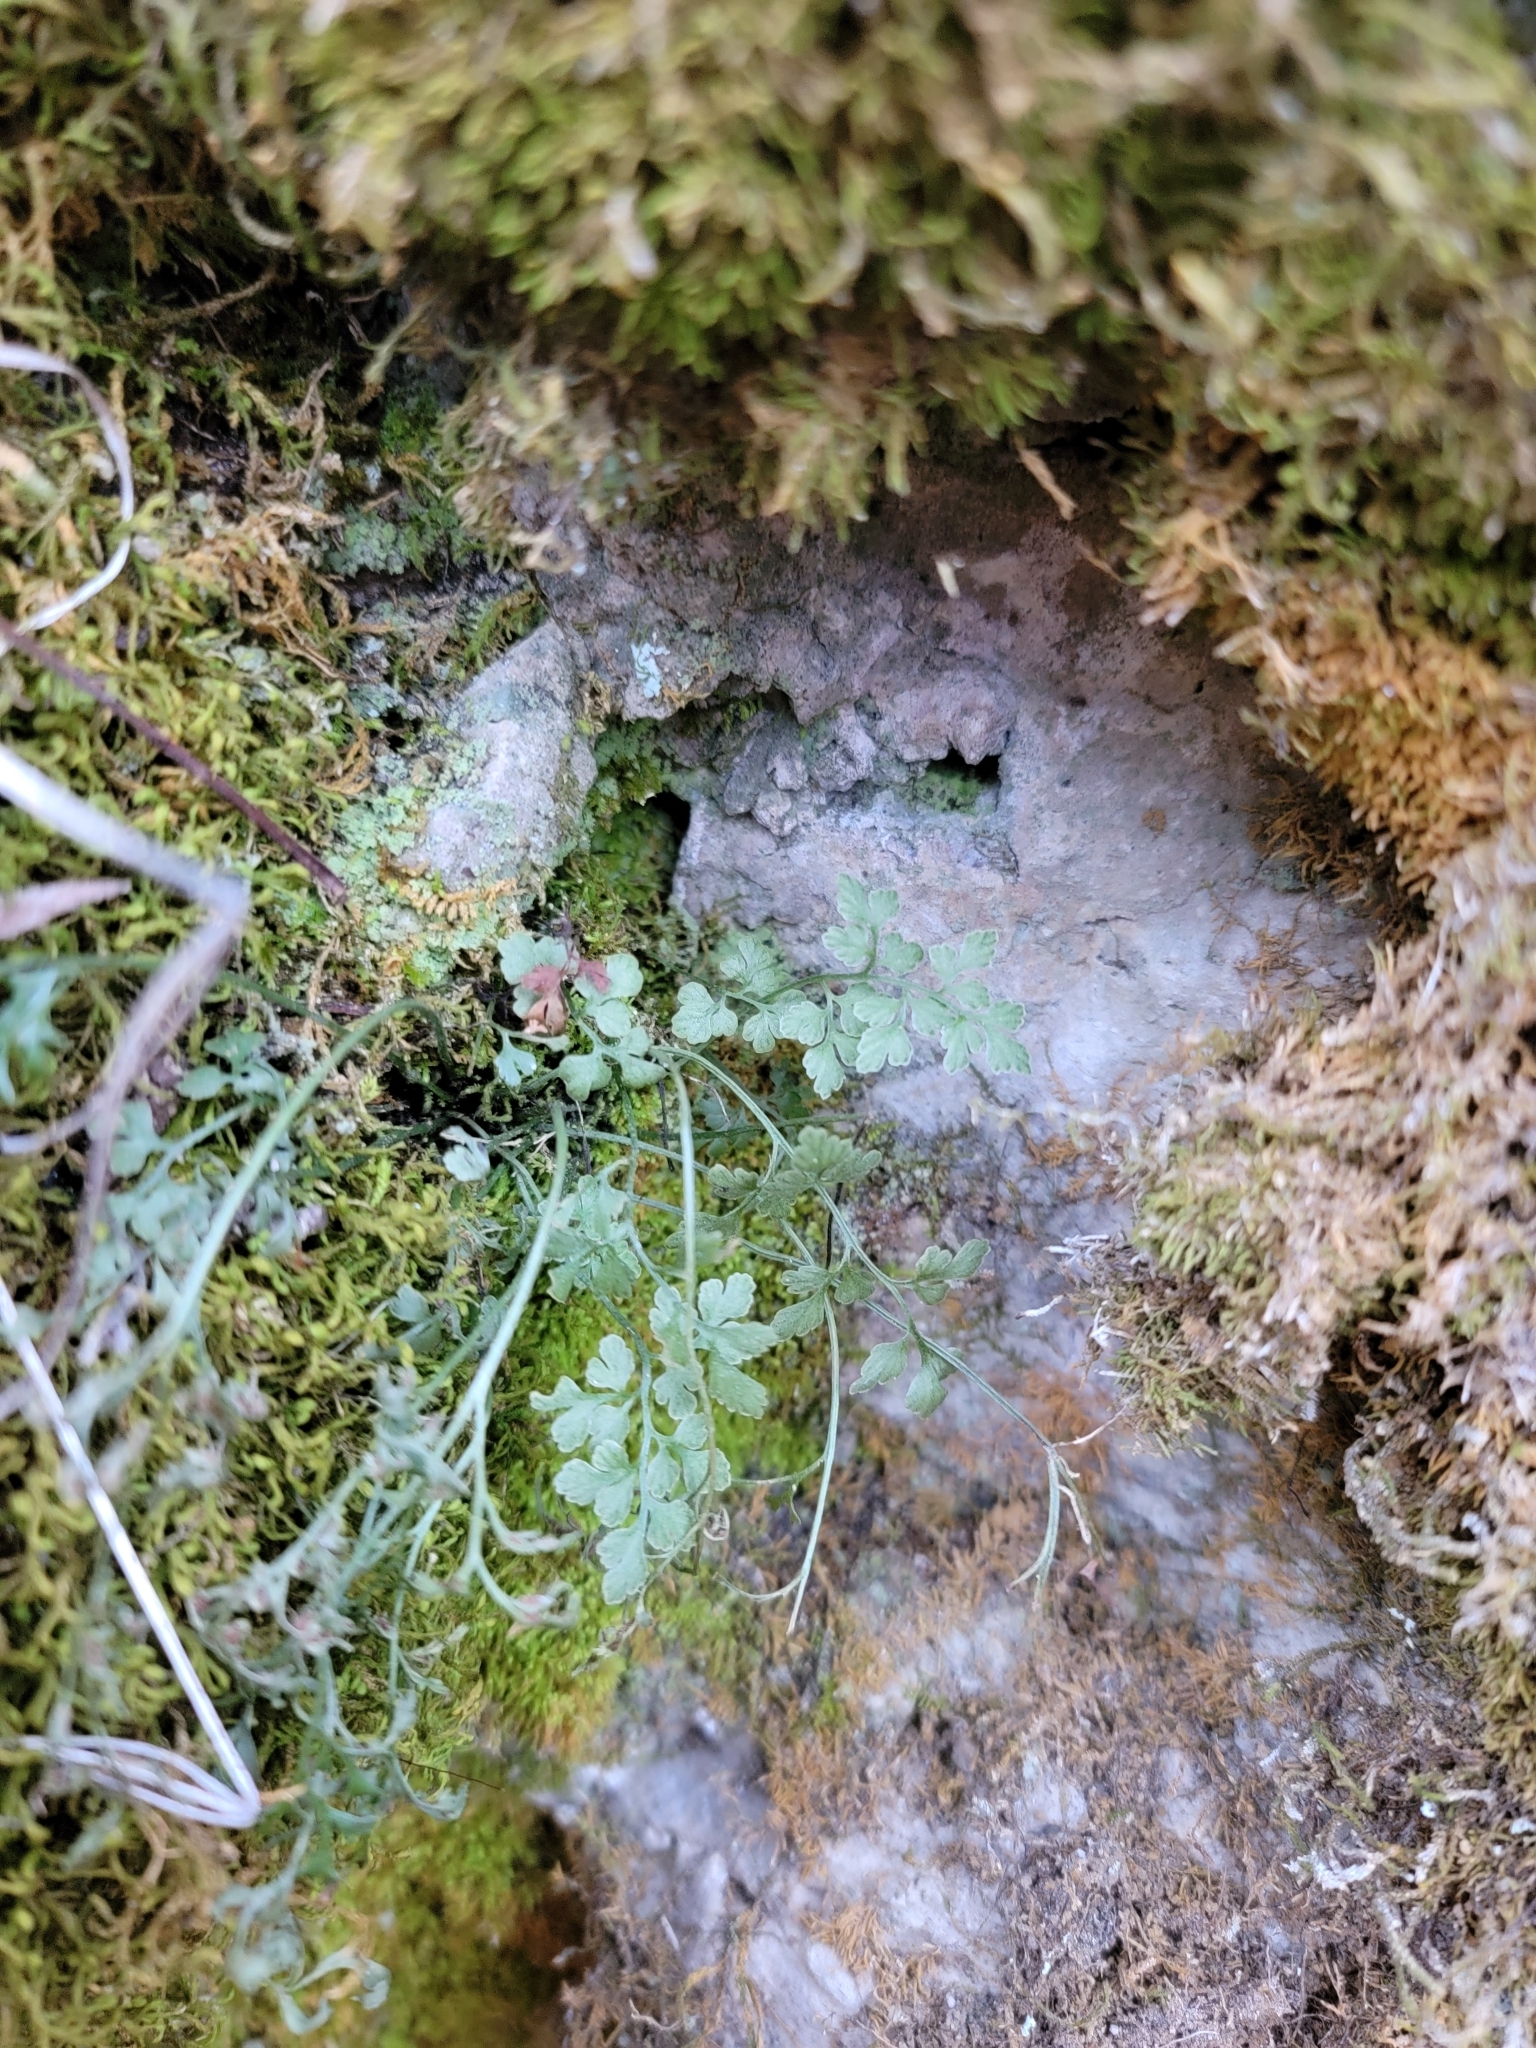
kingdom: Plantae
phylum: Tracheophyta
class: Polypodiopsida
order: Polypodiales
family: Aspleniaceae
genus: Asplenium
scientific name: Asplenium ruta-muraria
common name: Wall-rue
